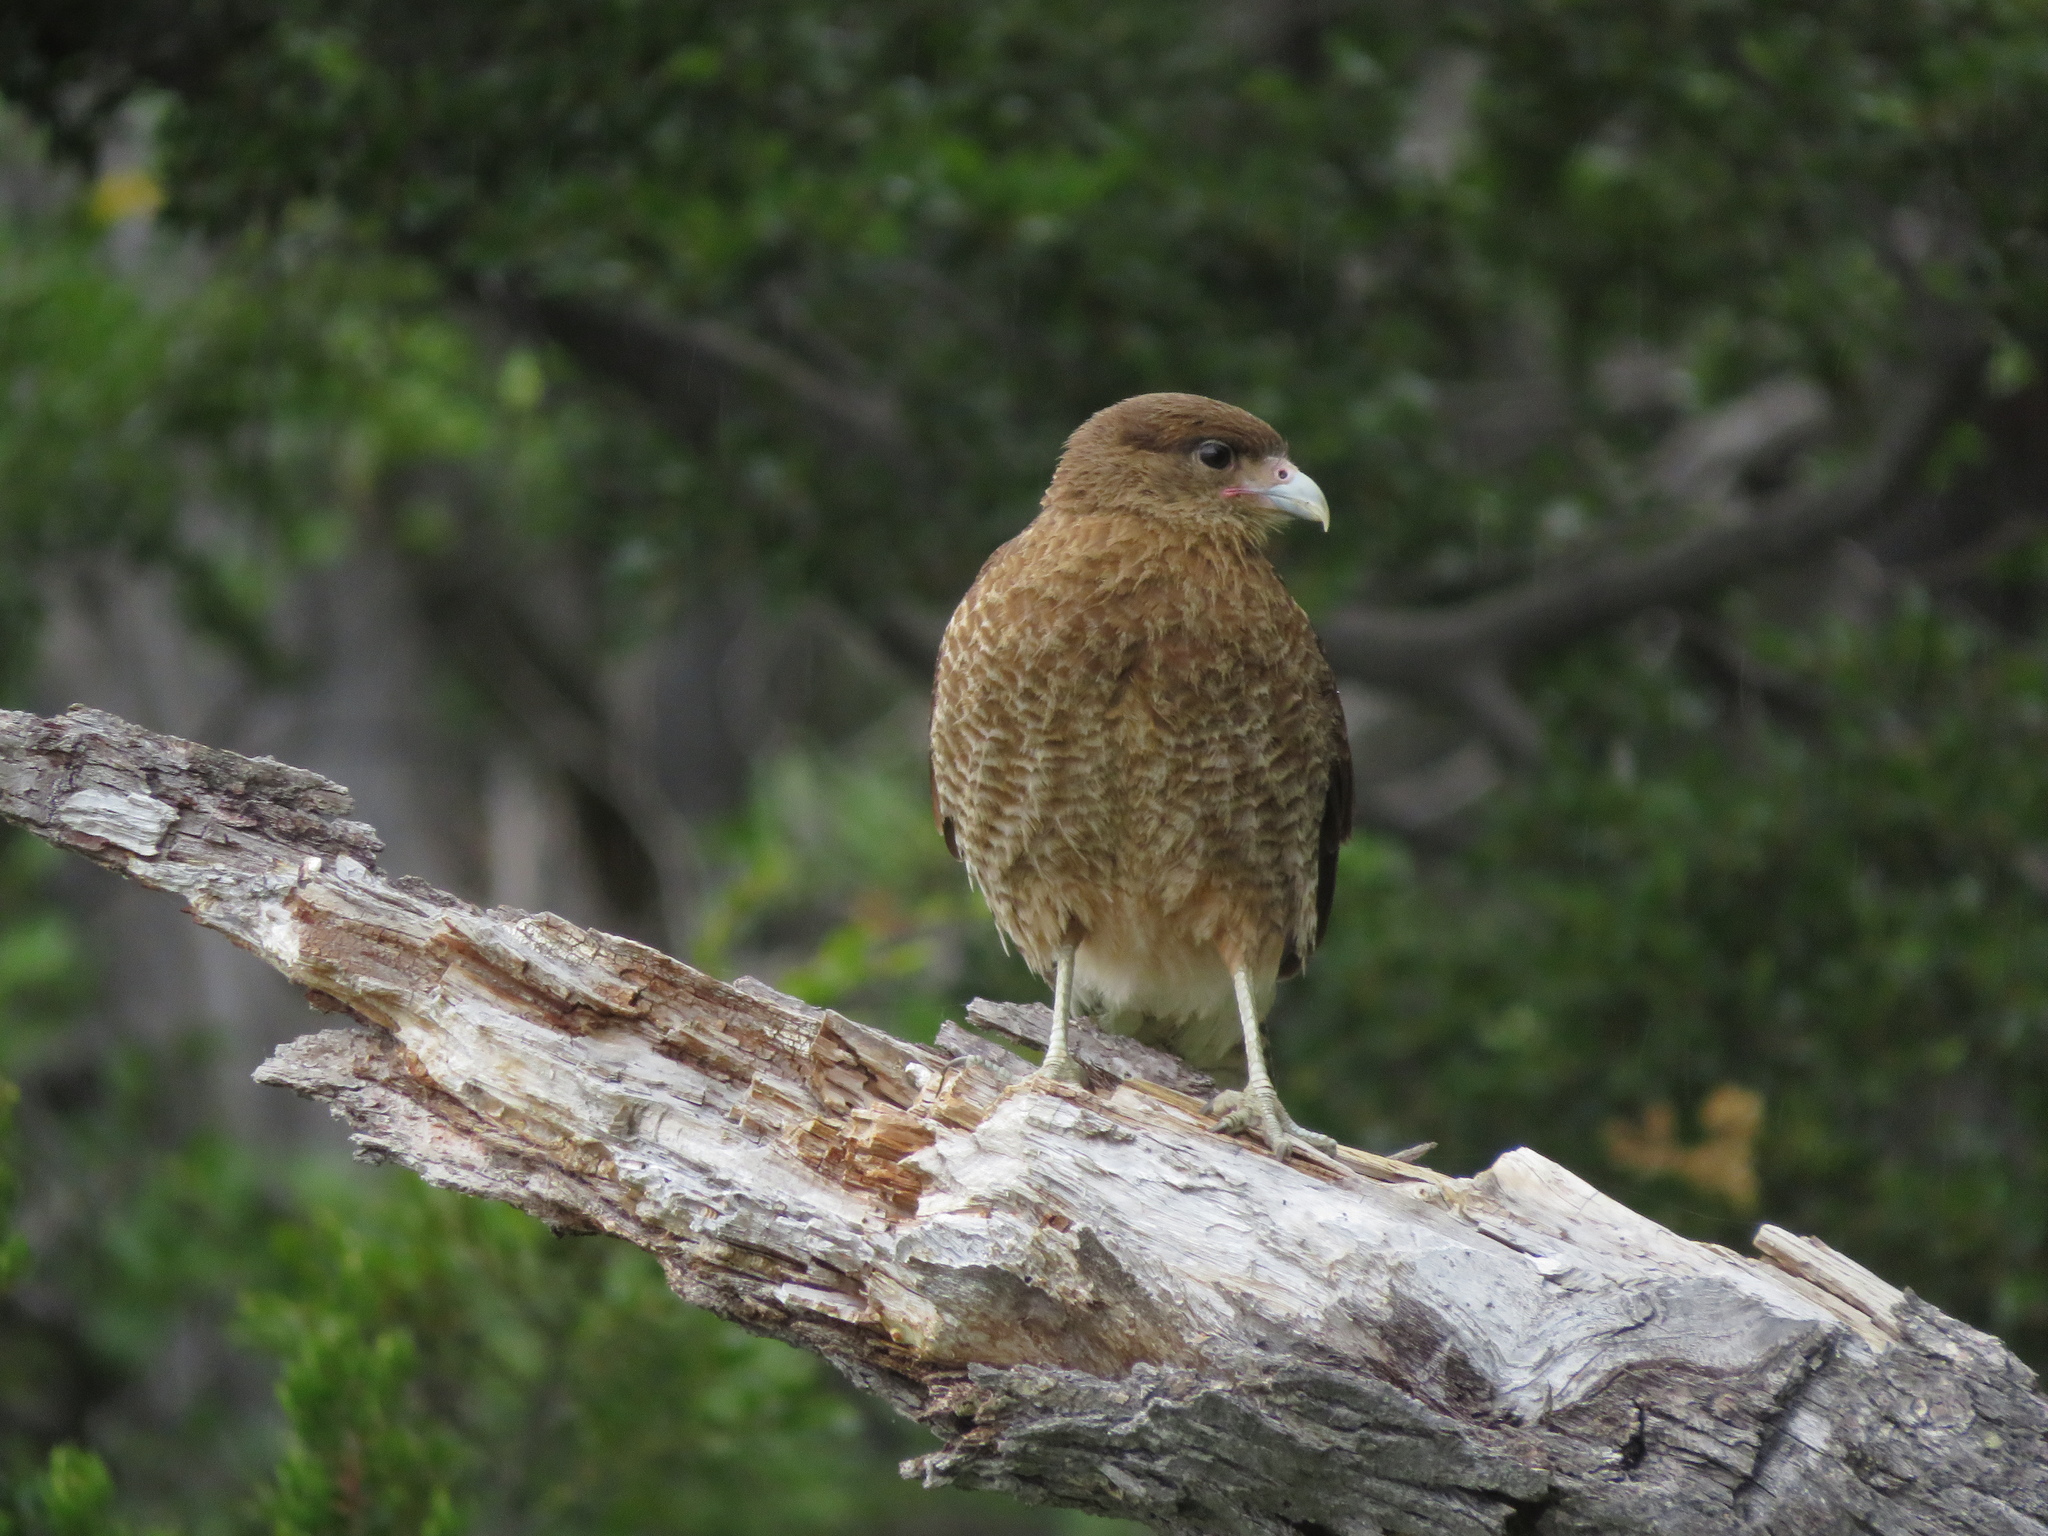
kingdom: Animalia
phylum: Chordata
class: Aves
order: Falconiformes
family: Falconidae
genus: Daptrius
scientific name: Daptrius
